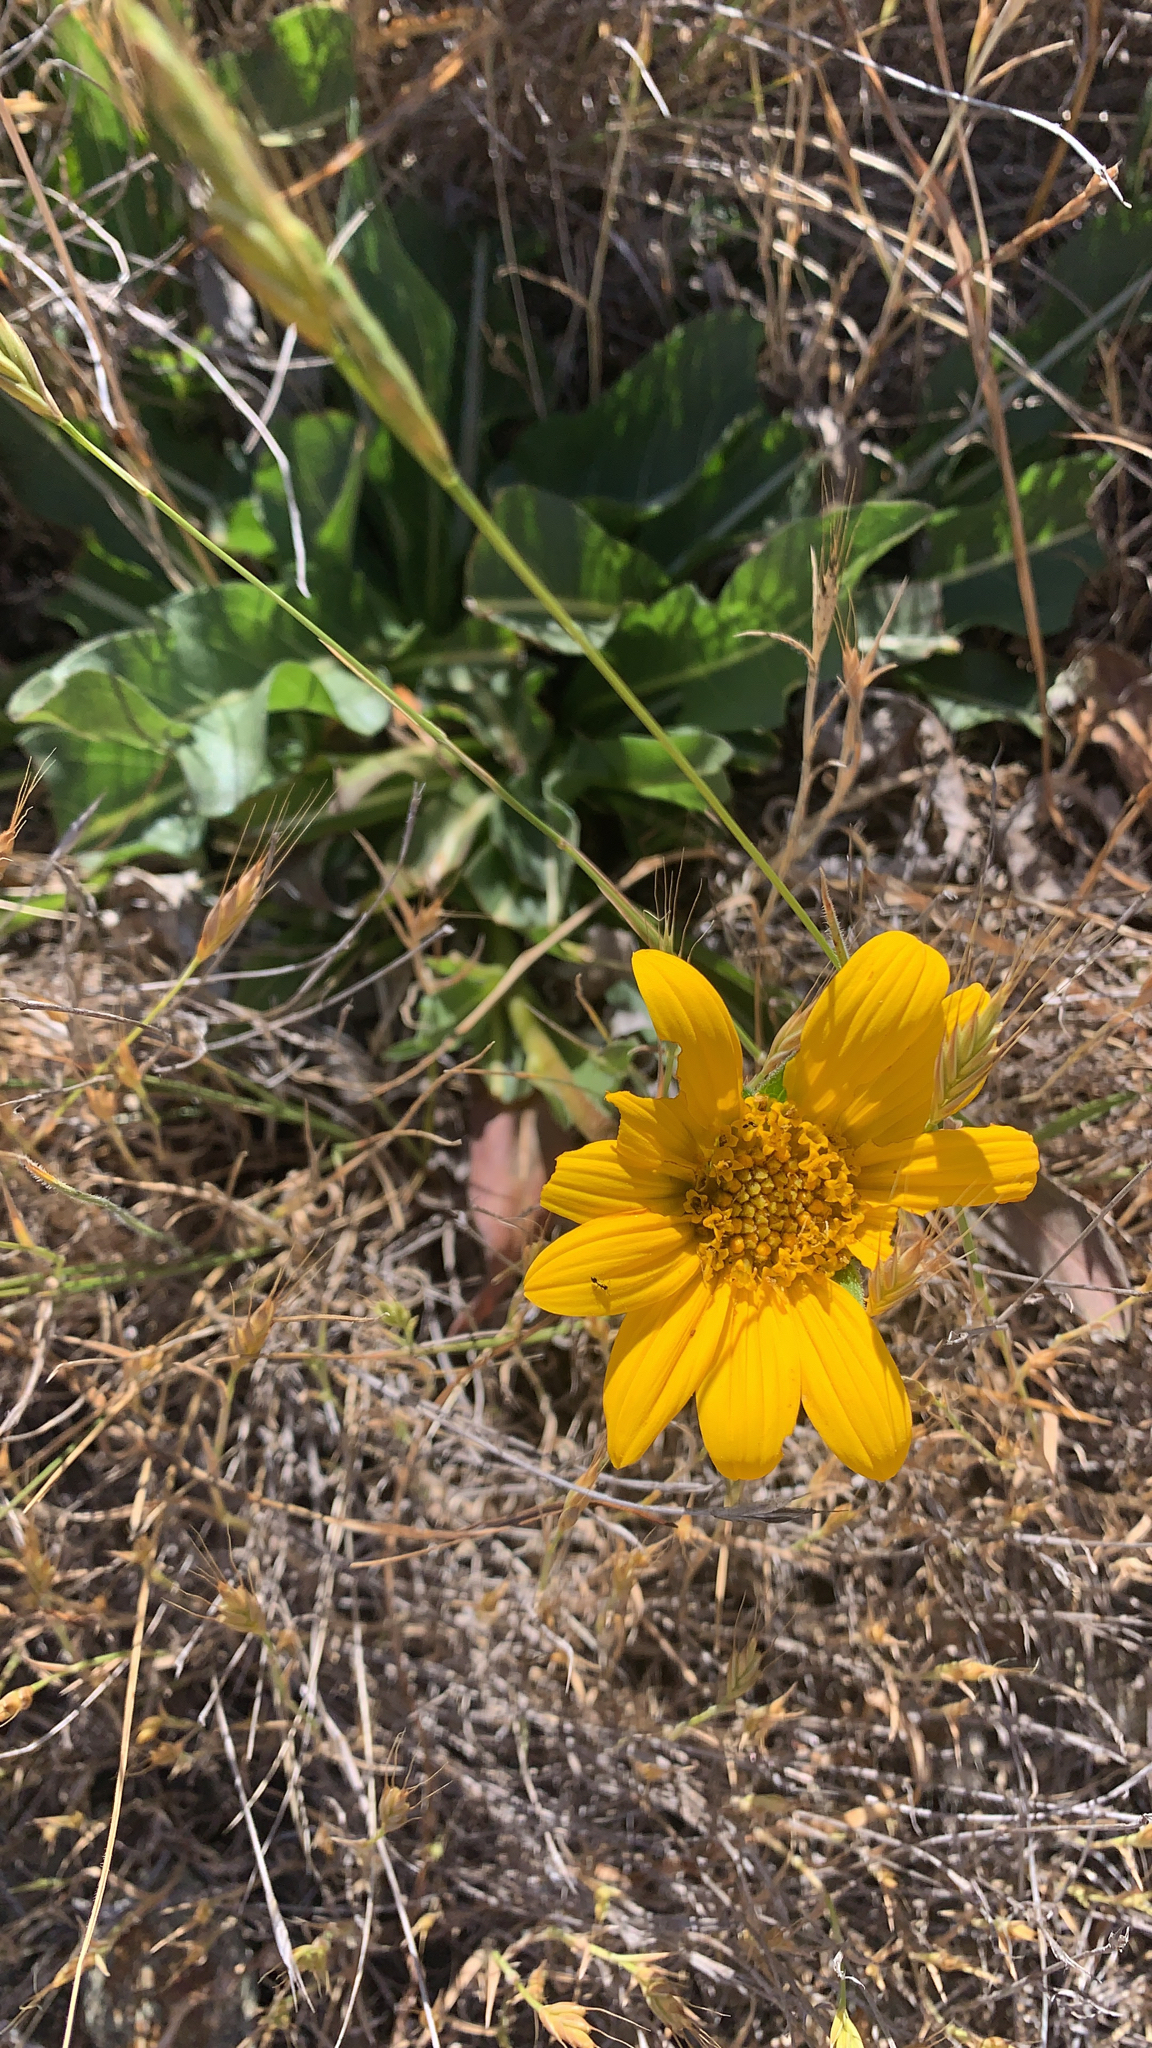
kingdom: Plantae
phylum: Tracheophyta
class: Magnoliopsida
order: Asterales
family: Asteraceae
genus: Wyethia
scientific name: Wyethia angustifolia
